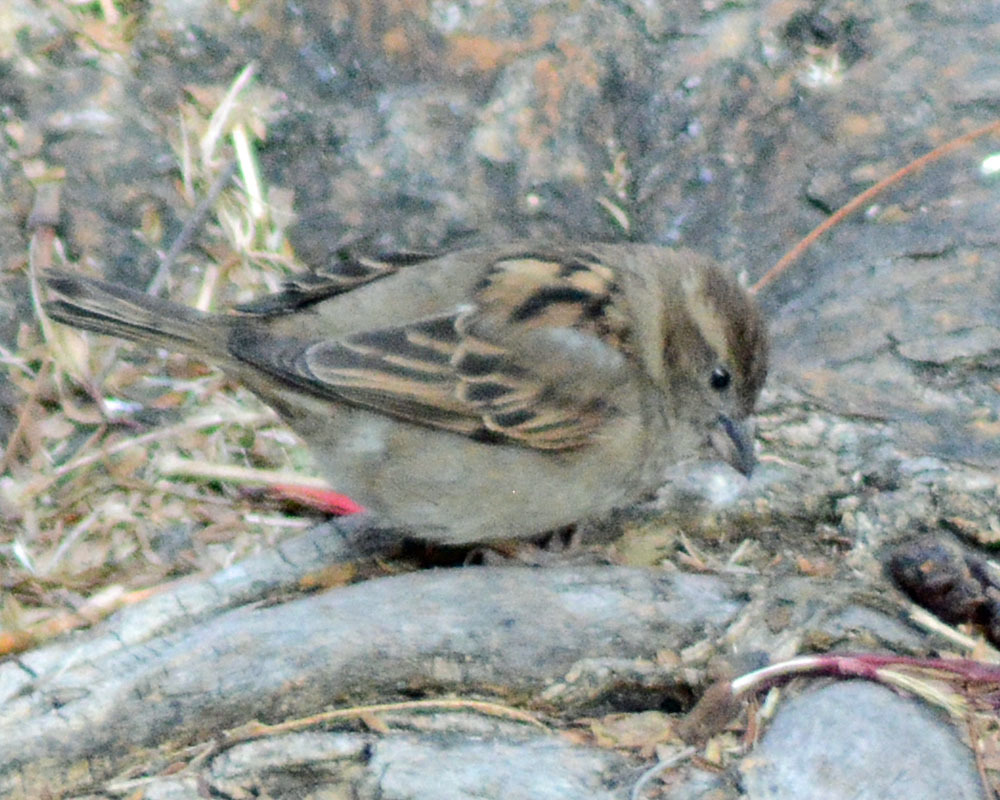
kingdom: Animalia
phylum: Chordata
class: Aves
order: Passeriformes
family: Passeridae
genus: Passer
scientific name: Passer domesticus
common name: House sparrow
